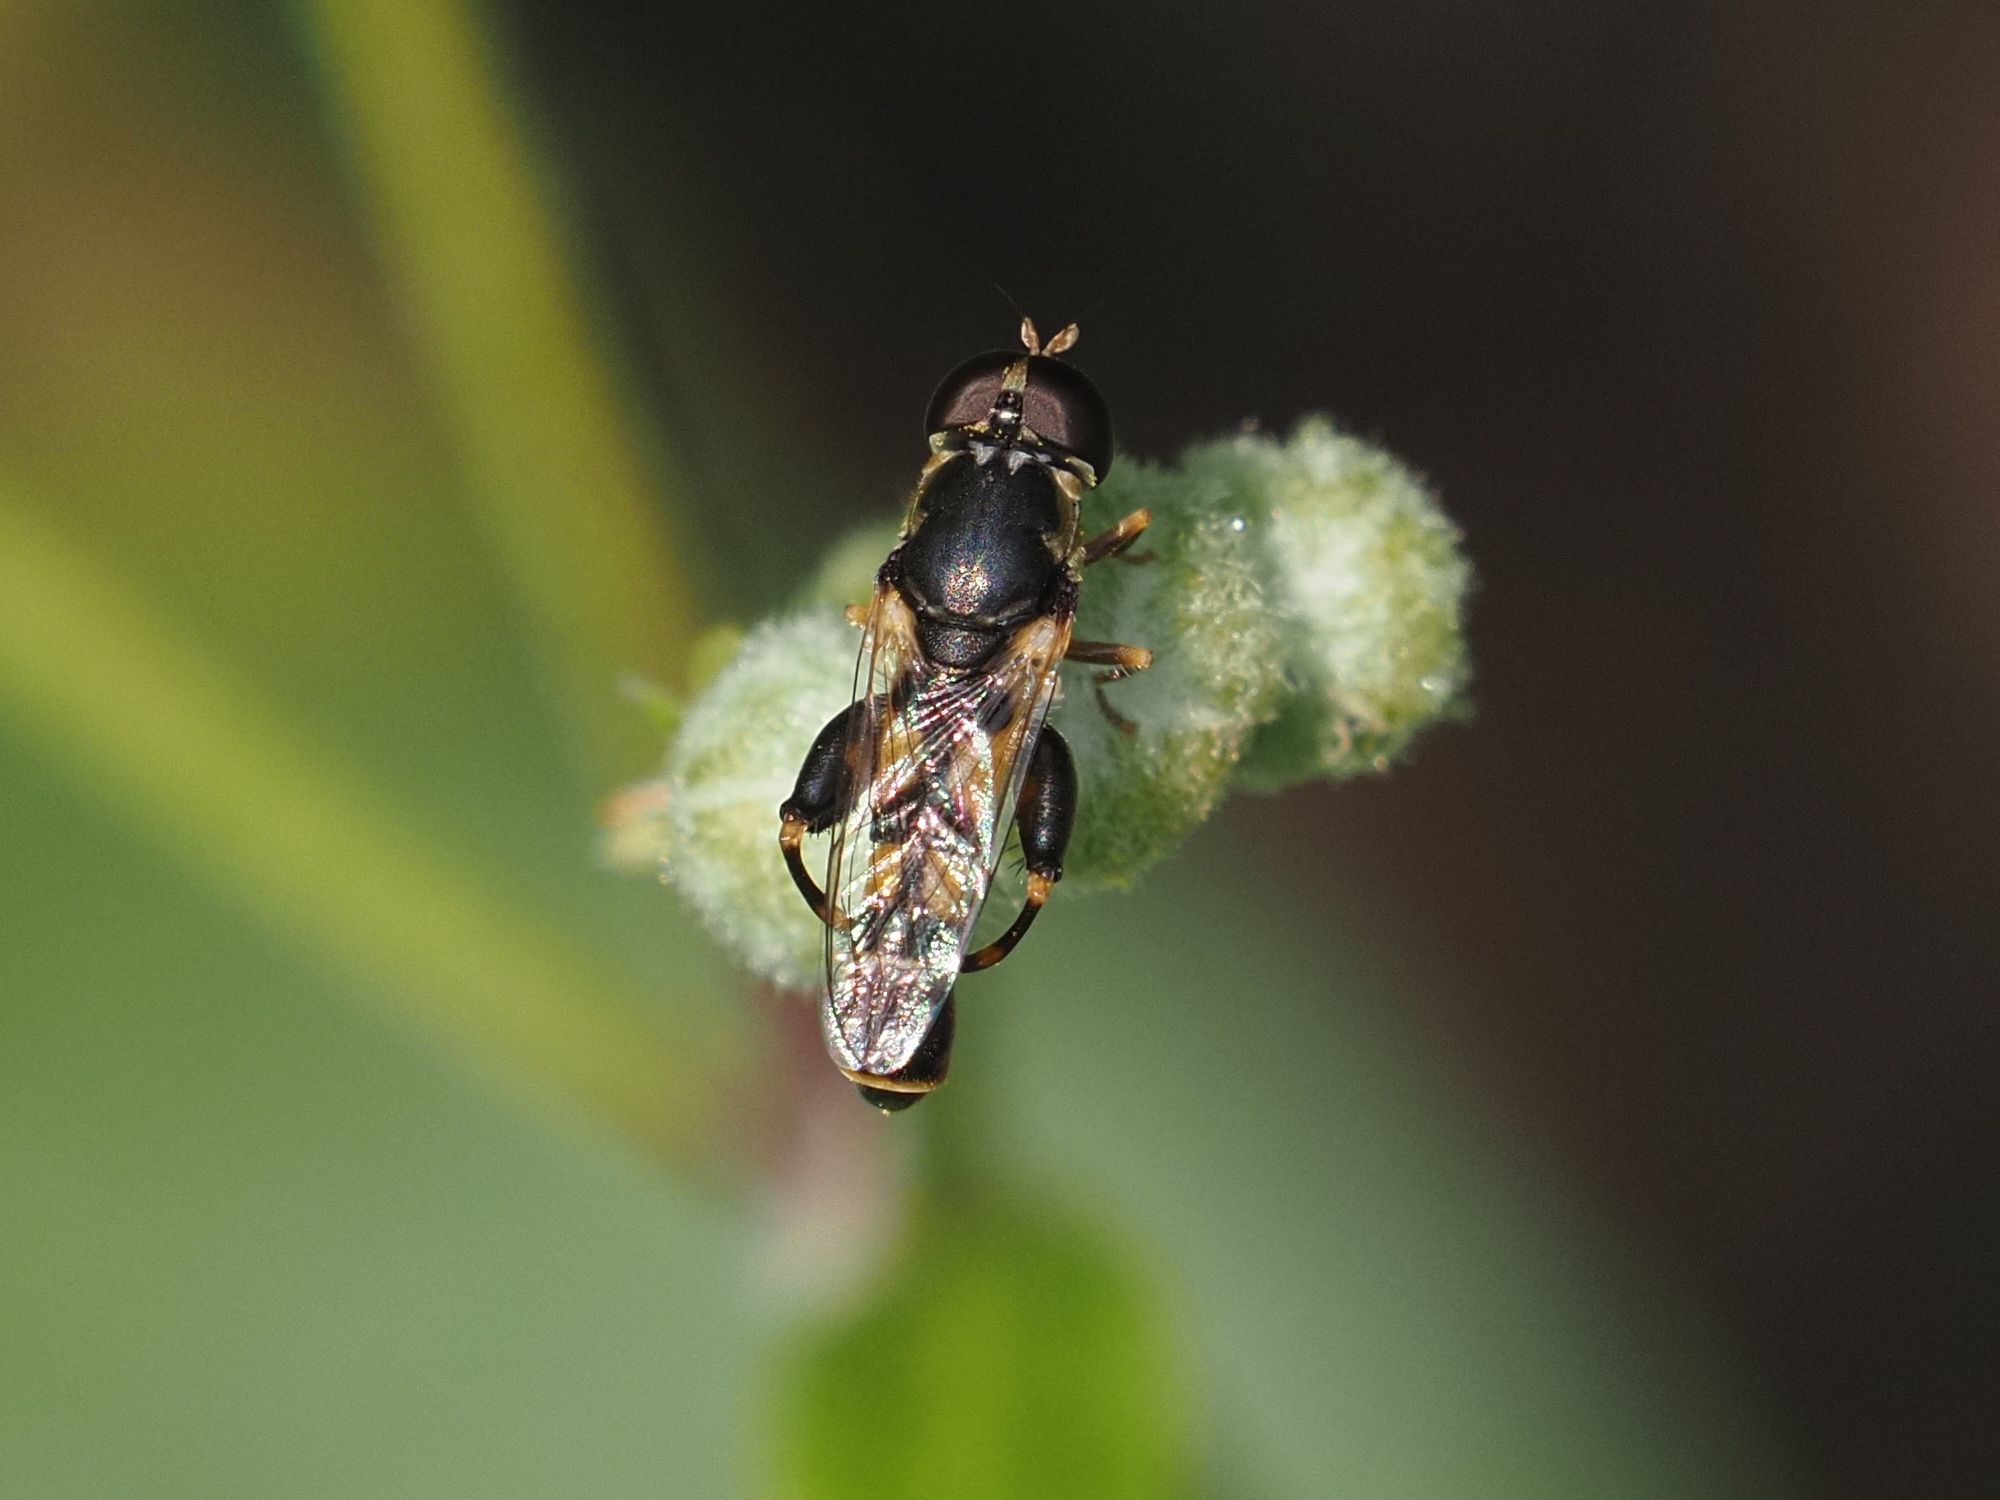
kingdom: Animalia
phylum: Arthropoda
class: Insecta
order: Diptera
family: Syrphidae
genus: Syritta
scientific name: Syritta pipiens
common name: Hover fly
